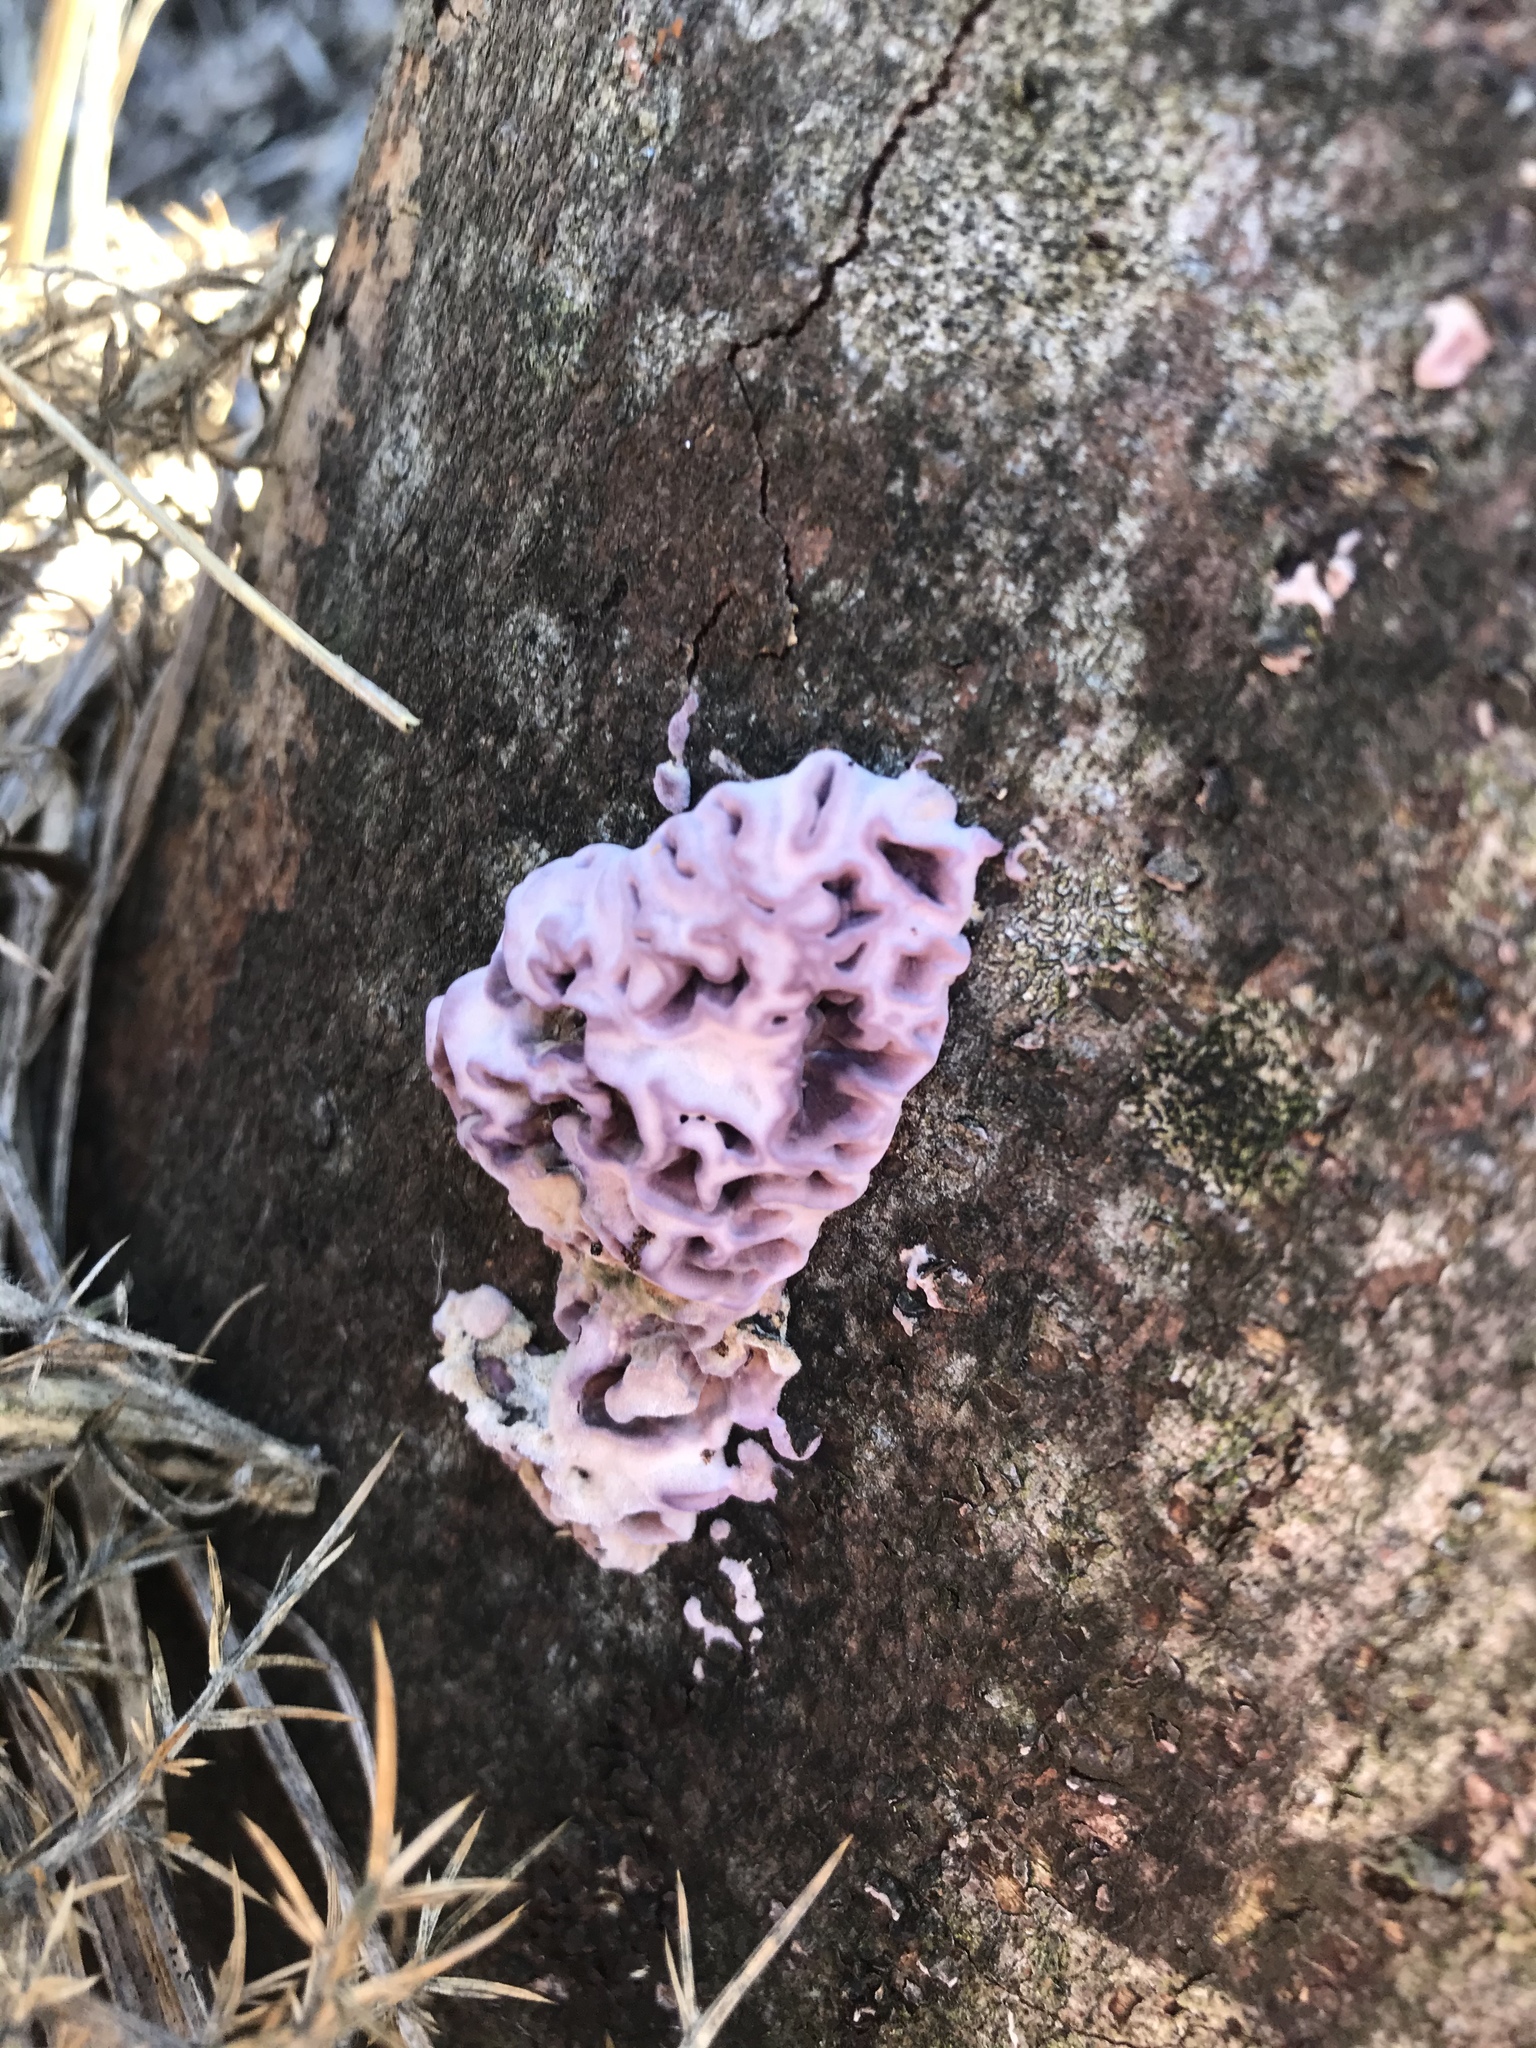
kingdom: Fungi
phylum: Basidiomycota
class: Agaricomycetes
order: Agaricales
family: Cyphellaceae
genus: Chondrostereum
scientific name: Chondrostereum purpureum
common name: Silver leaf disease
